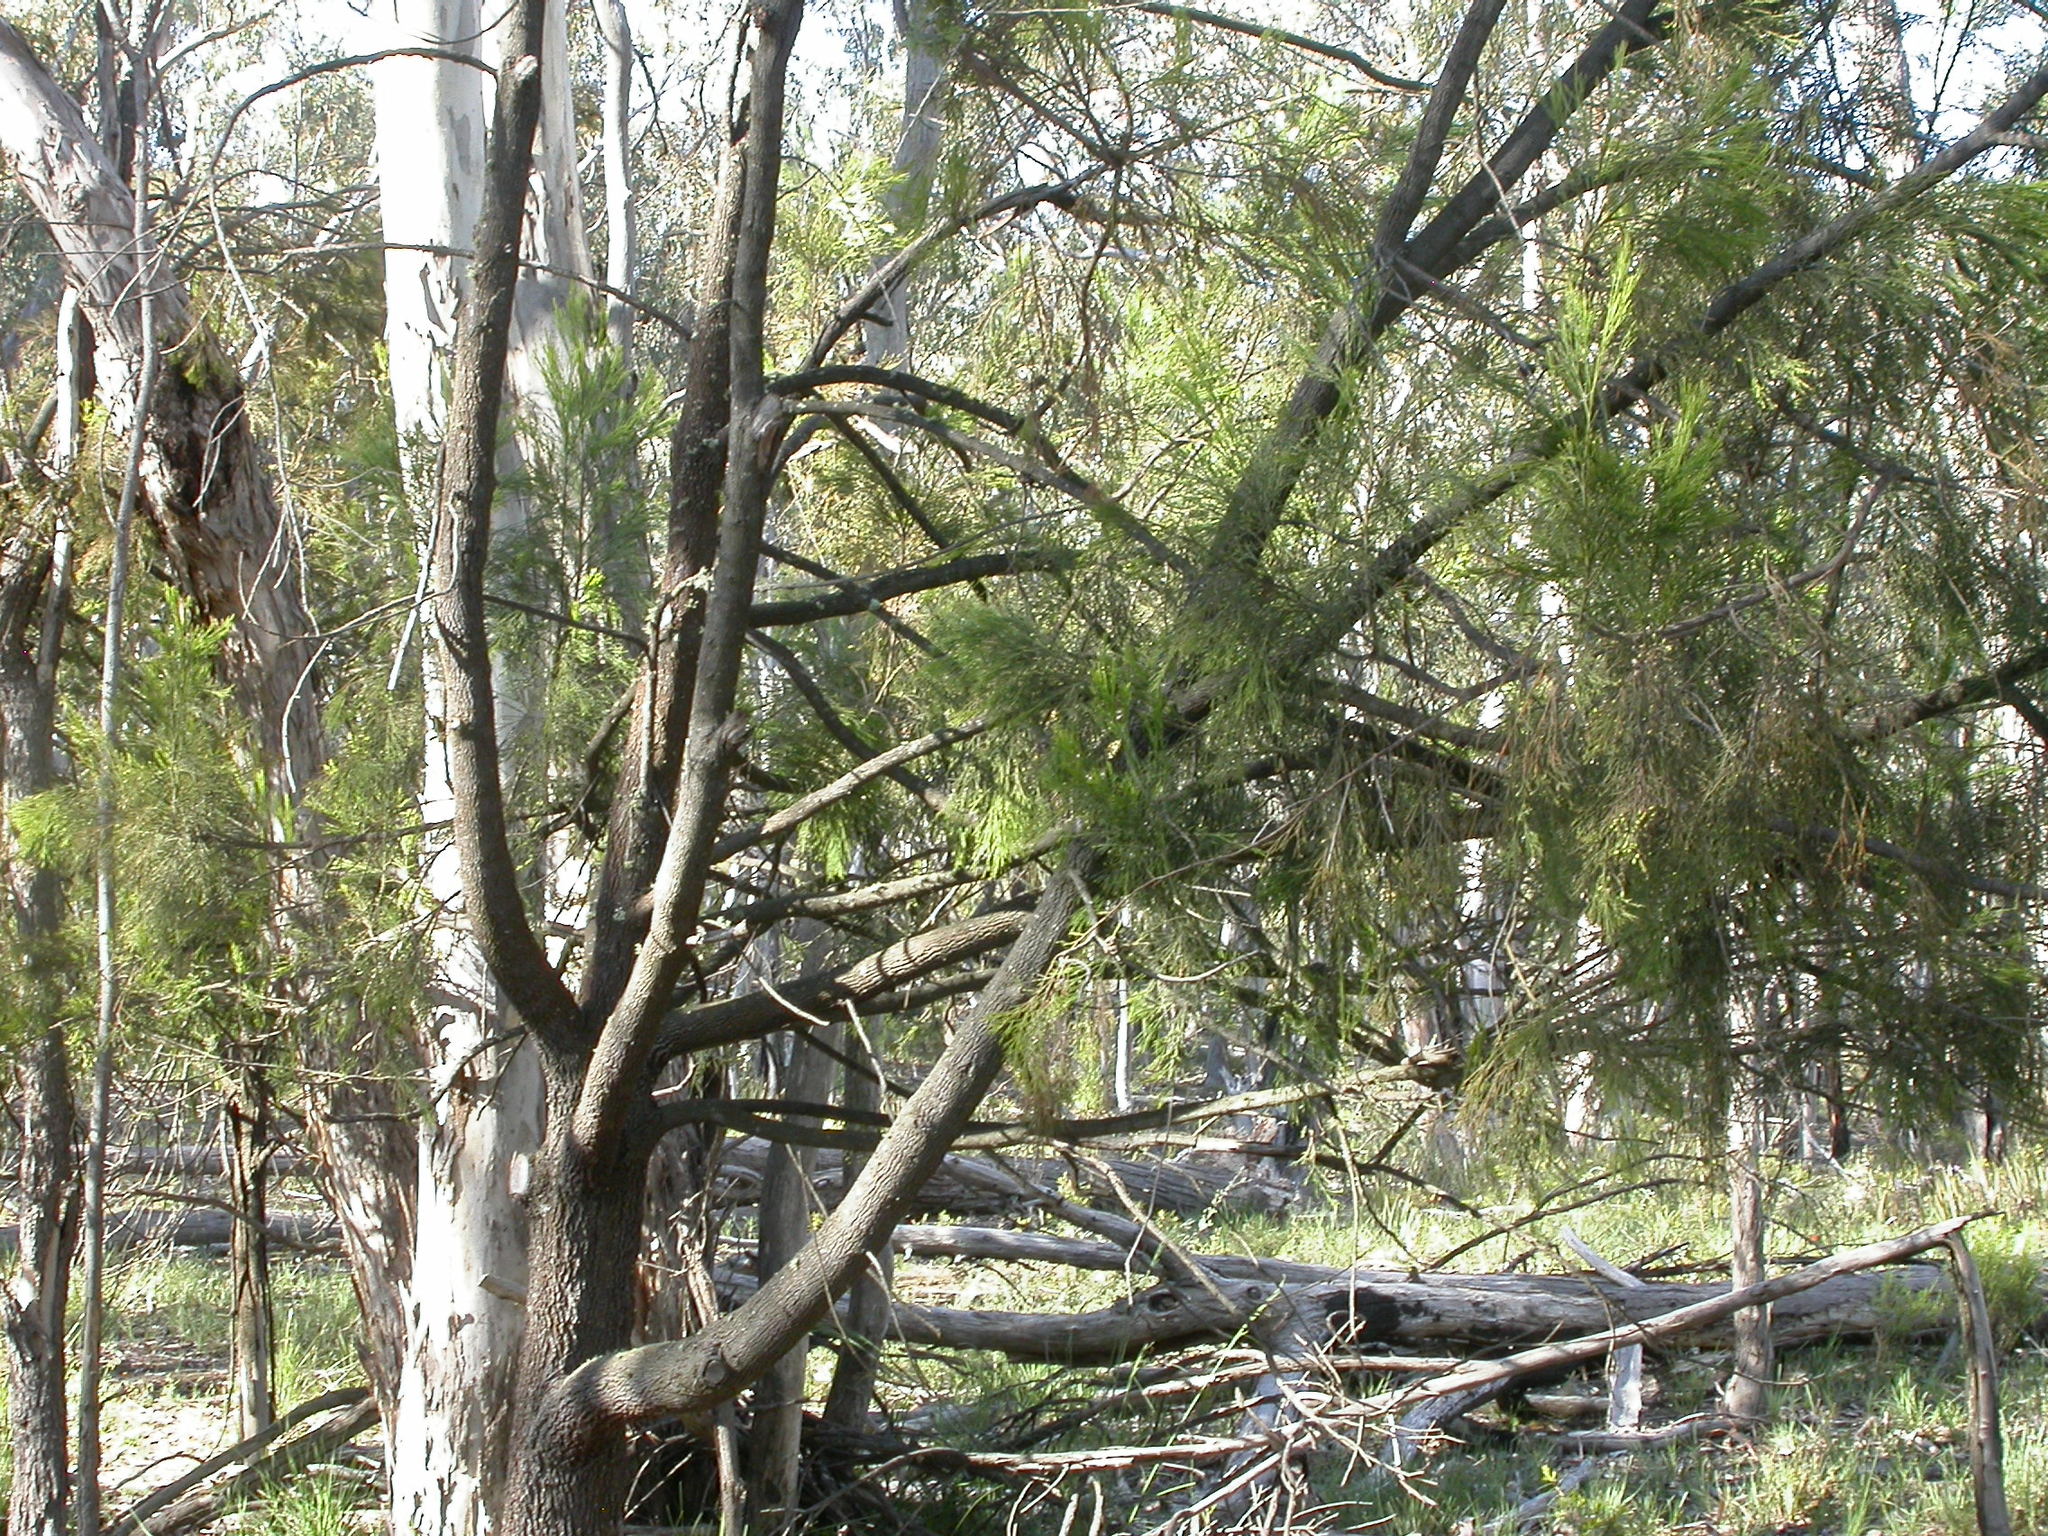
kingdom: Plantae
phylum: Tracheophyta
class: Magnoliopsida
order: Santalales
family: Santalaceae
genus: Exocarpos
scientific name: Exocarpos cupressiformis
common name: Cherry ballart
